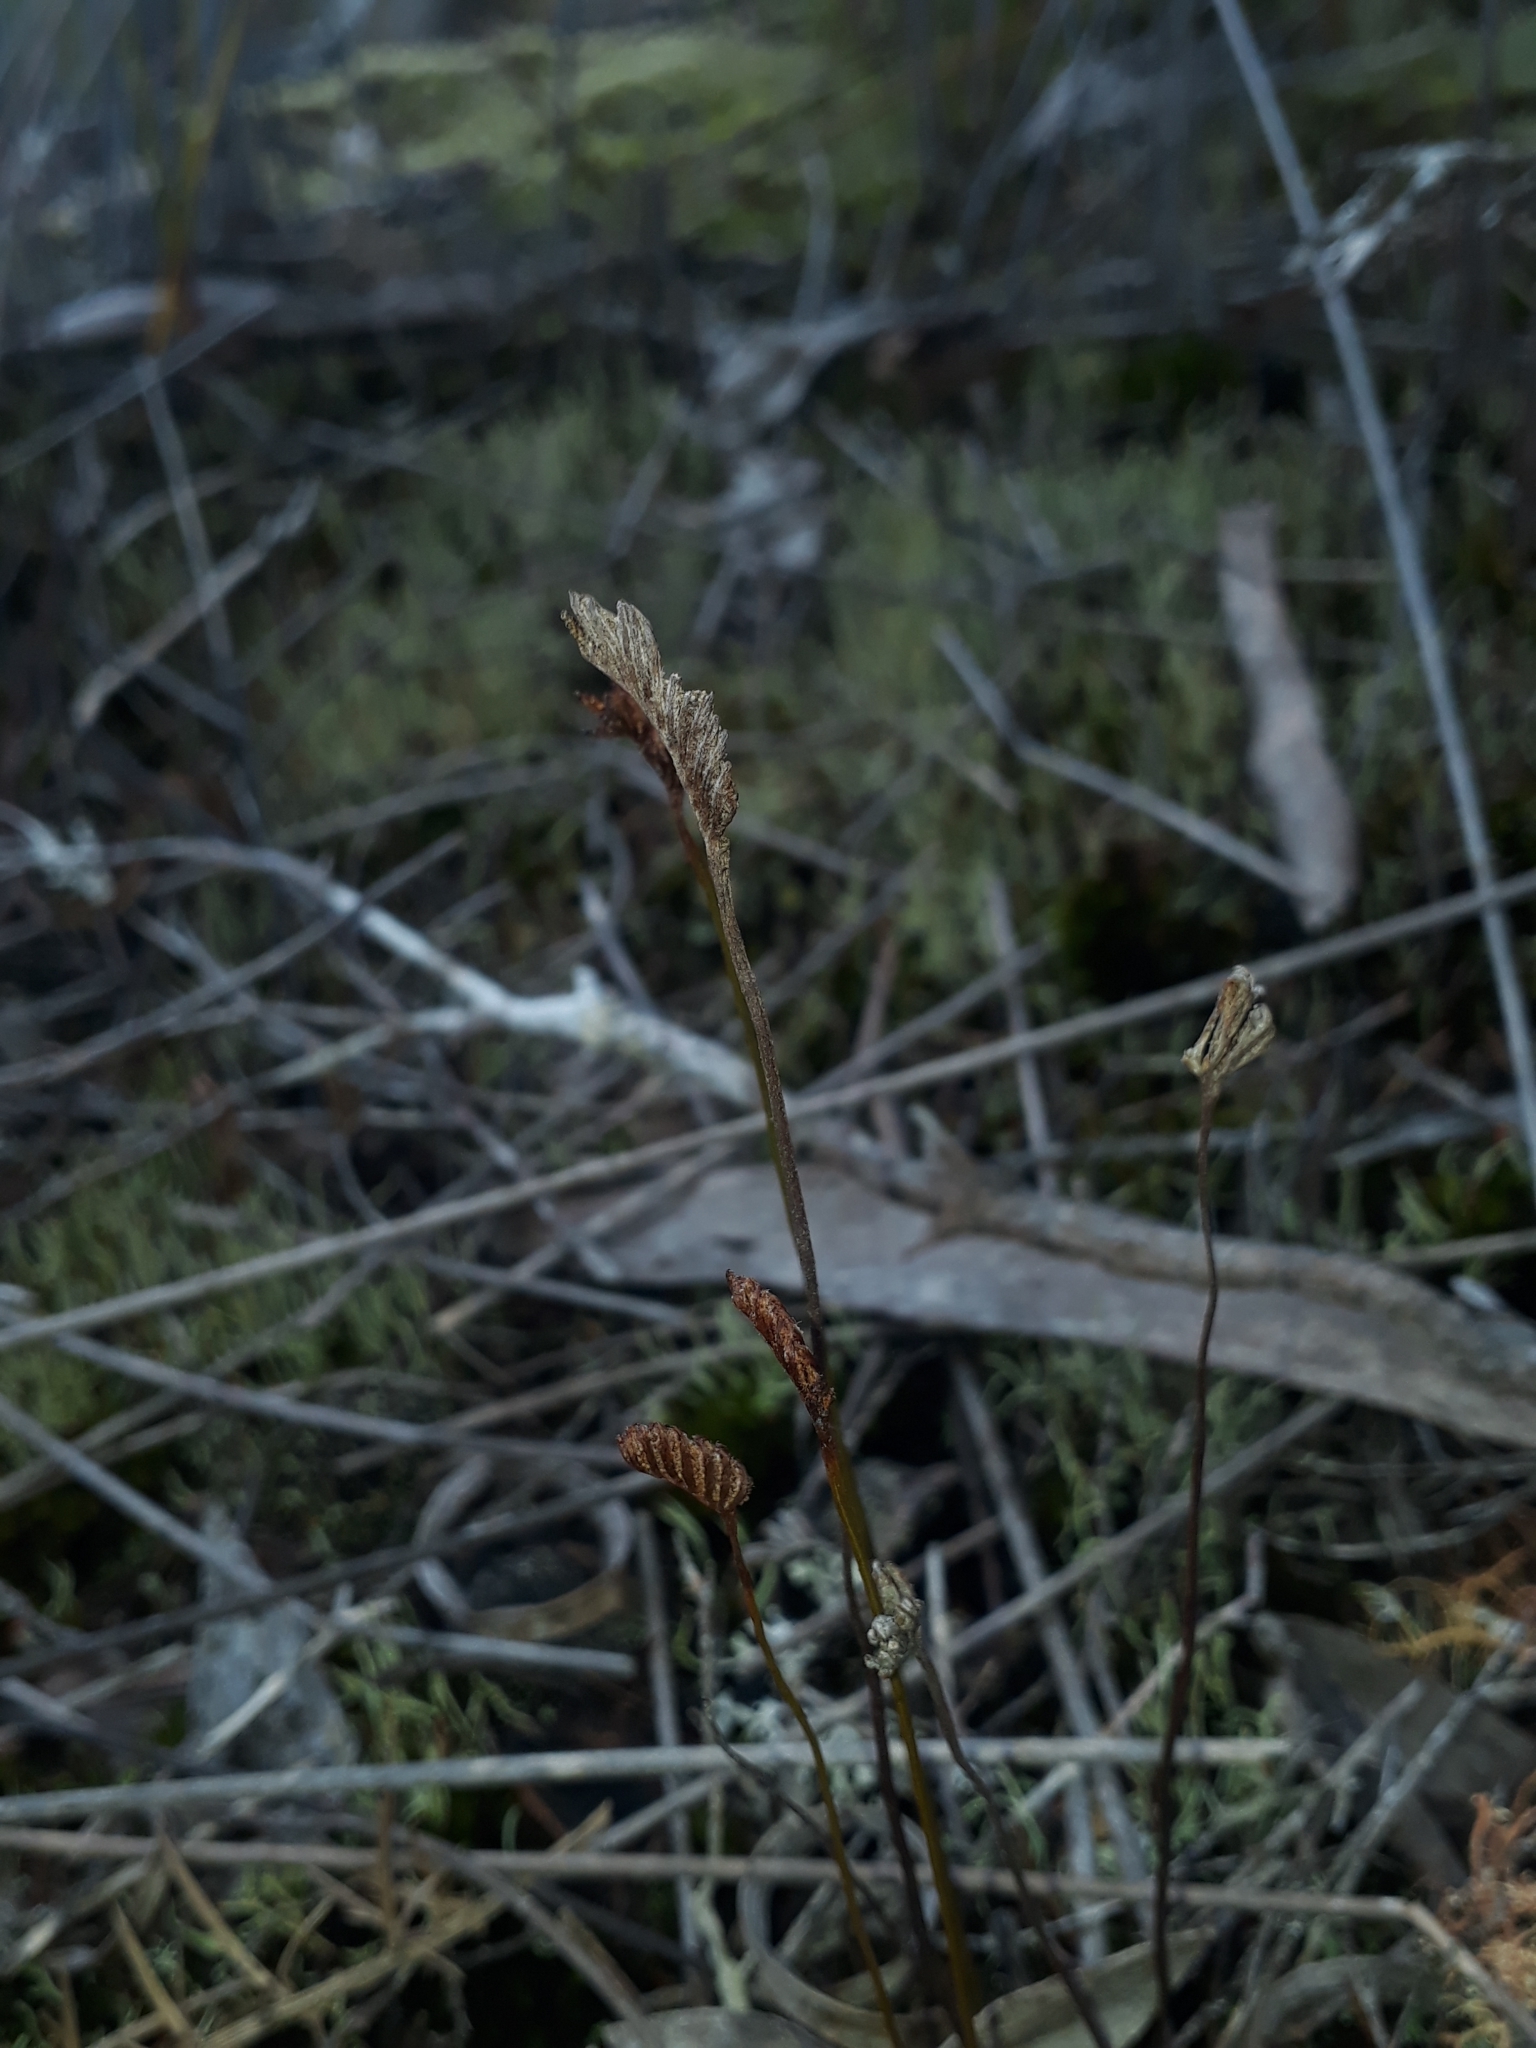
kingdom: Plantae
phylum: Tracheophyta
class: Polypodiopsida
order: Schizaeales
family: Schizaeaceae
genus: Schizaea
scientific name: Schizaea bifida
